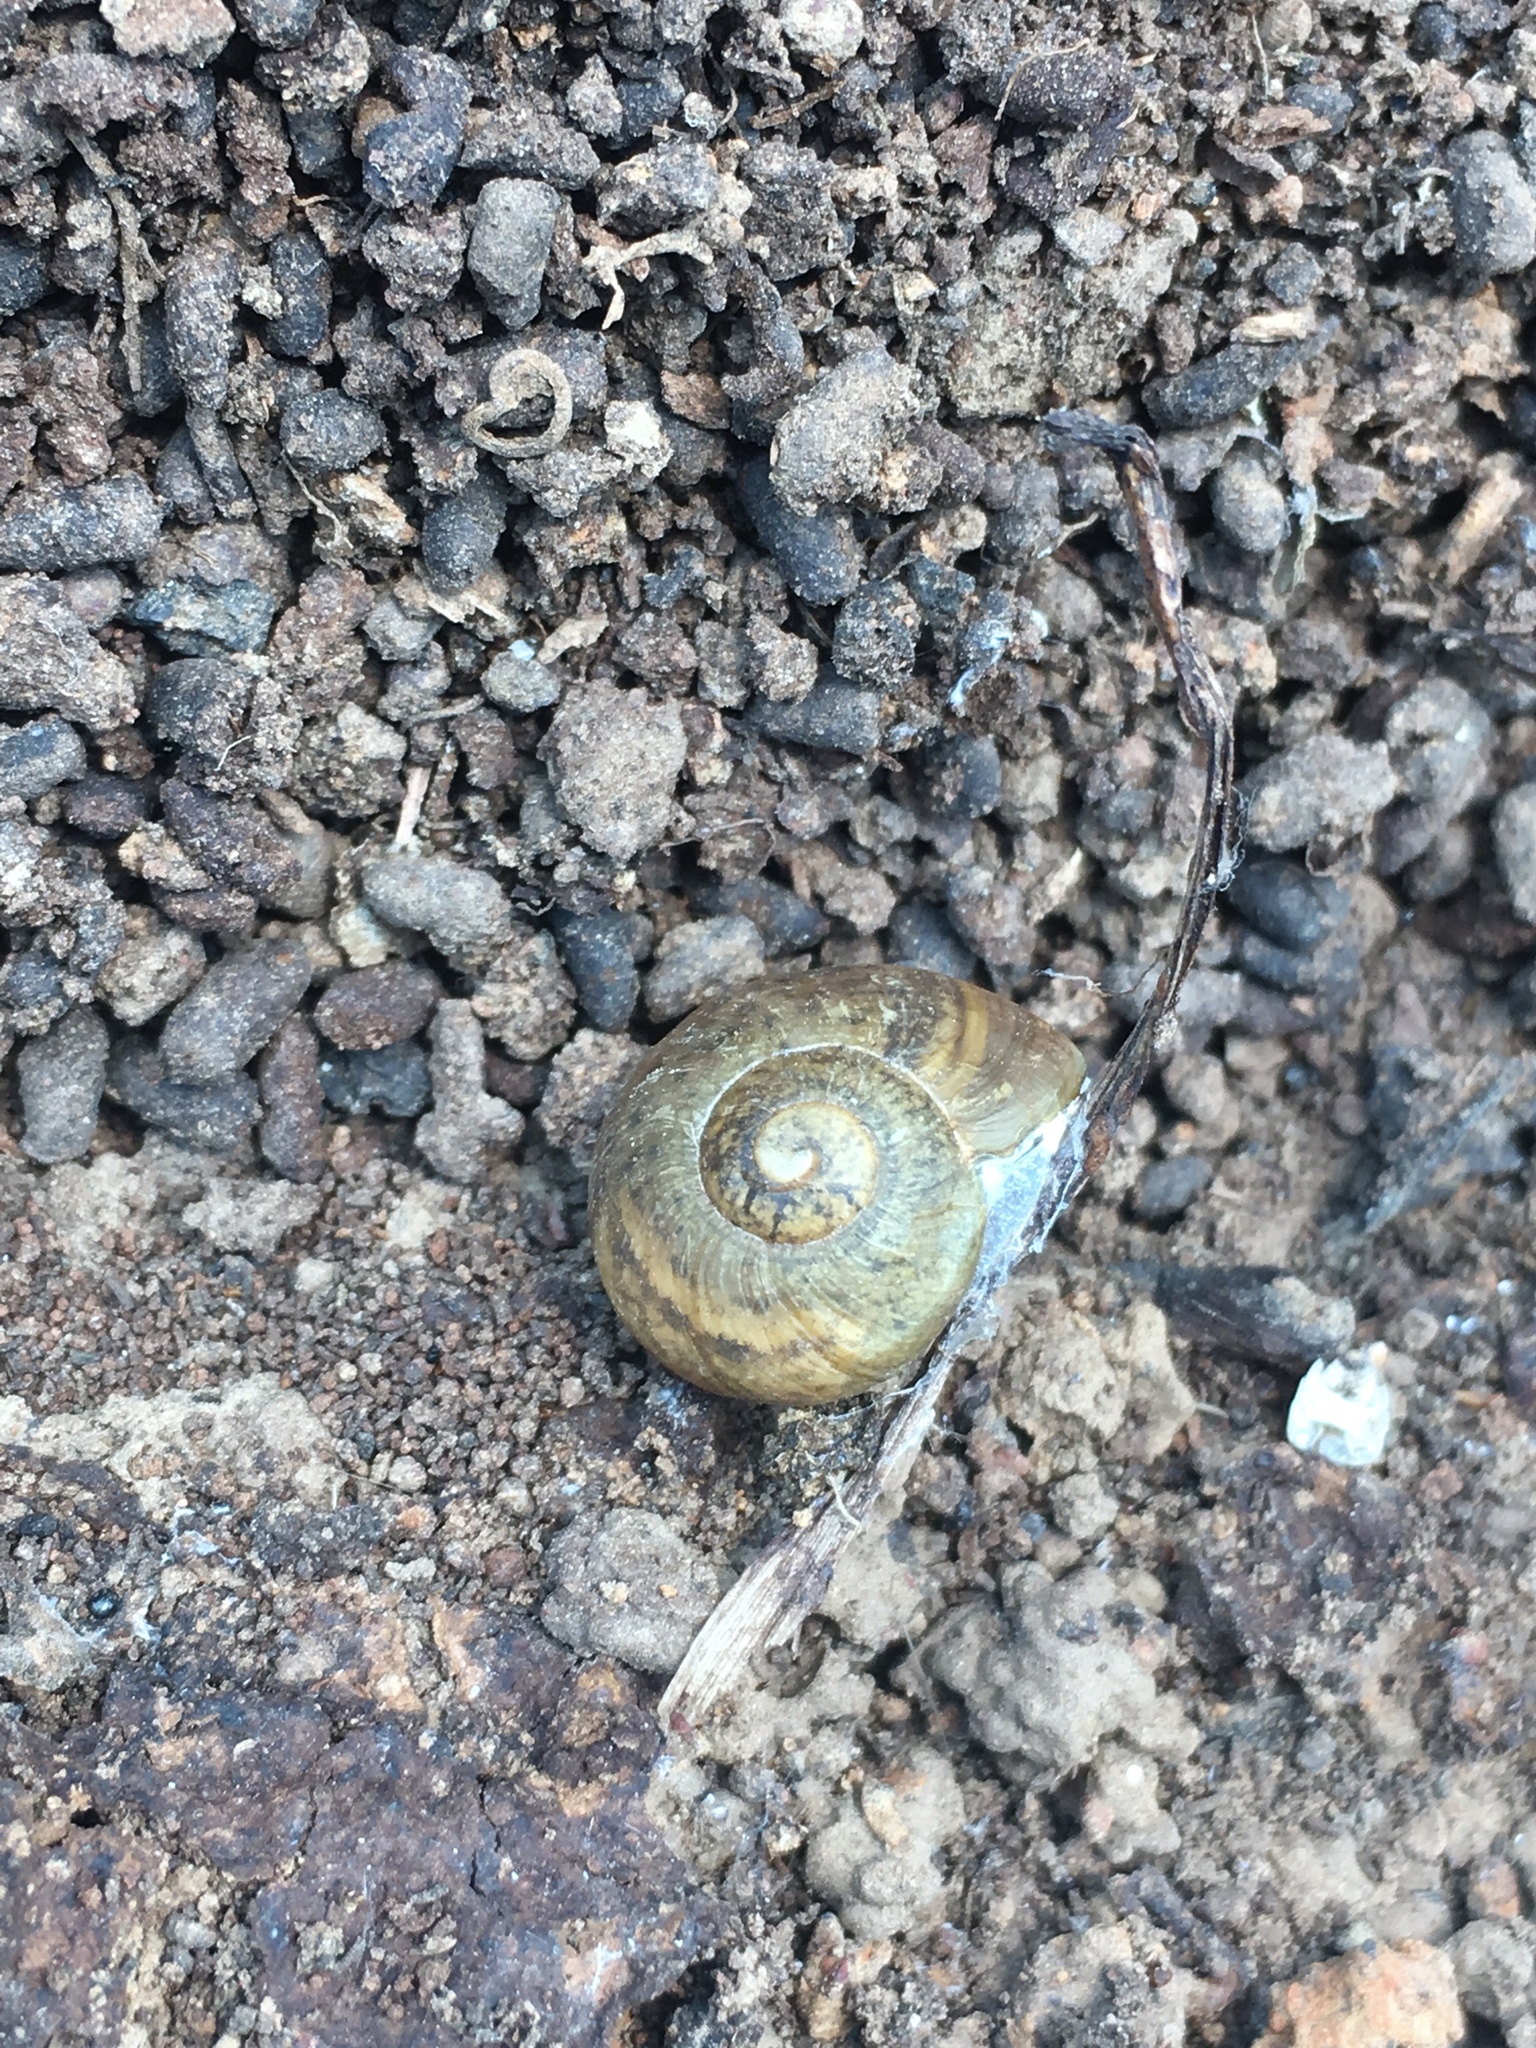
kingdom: Animalia
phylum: Mollusca
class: Gastropoda
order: Stylommatophora
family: Helicidae
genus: Cornu
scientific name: Cornu aspersum
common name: Brown garden snail
